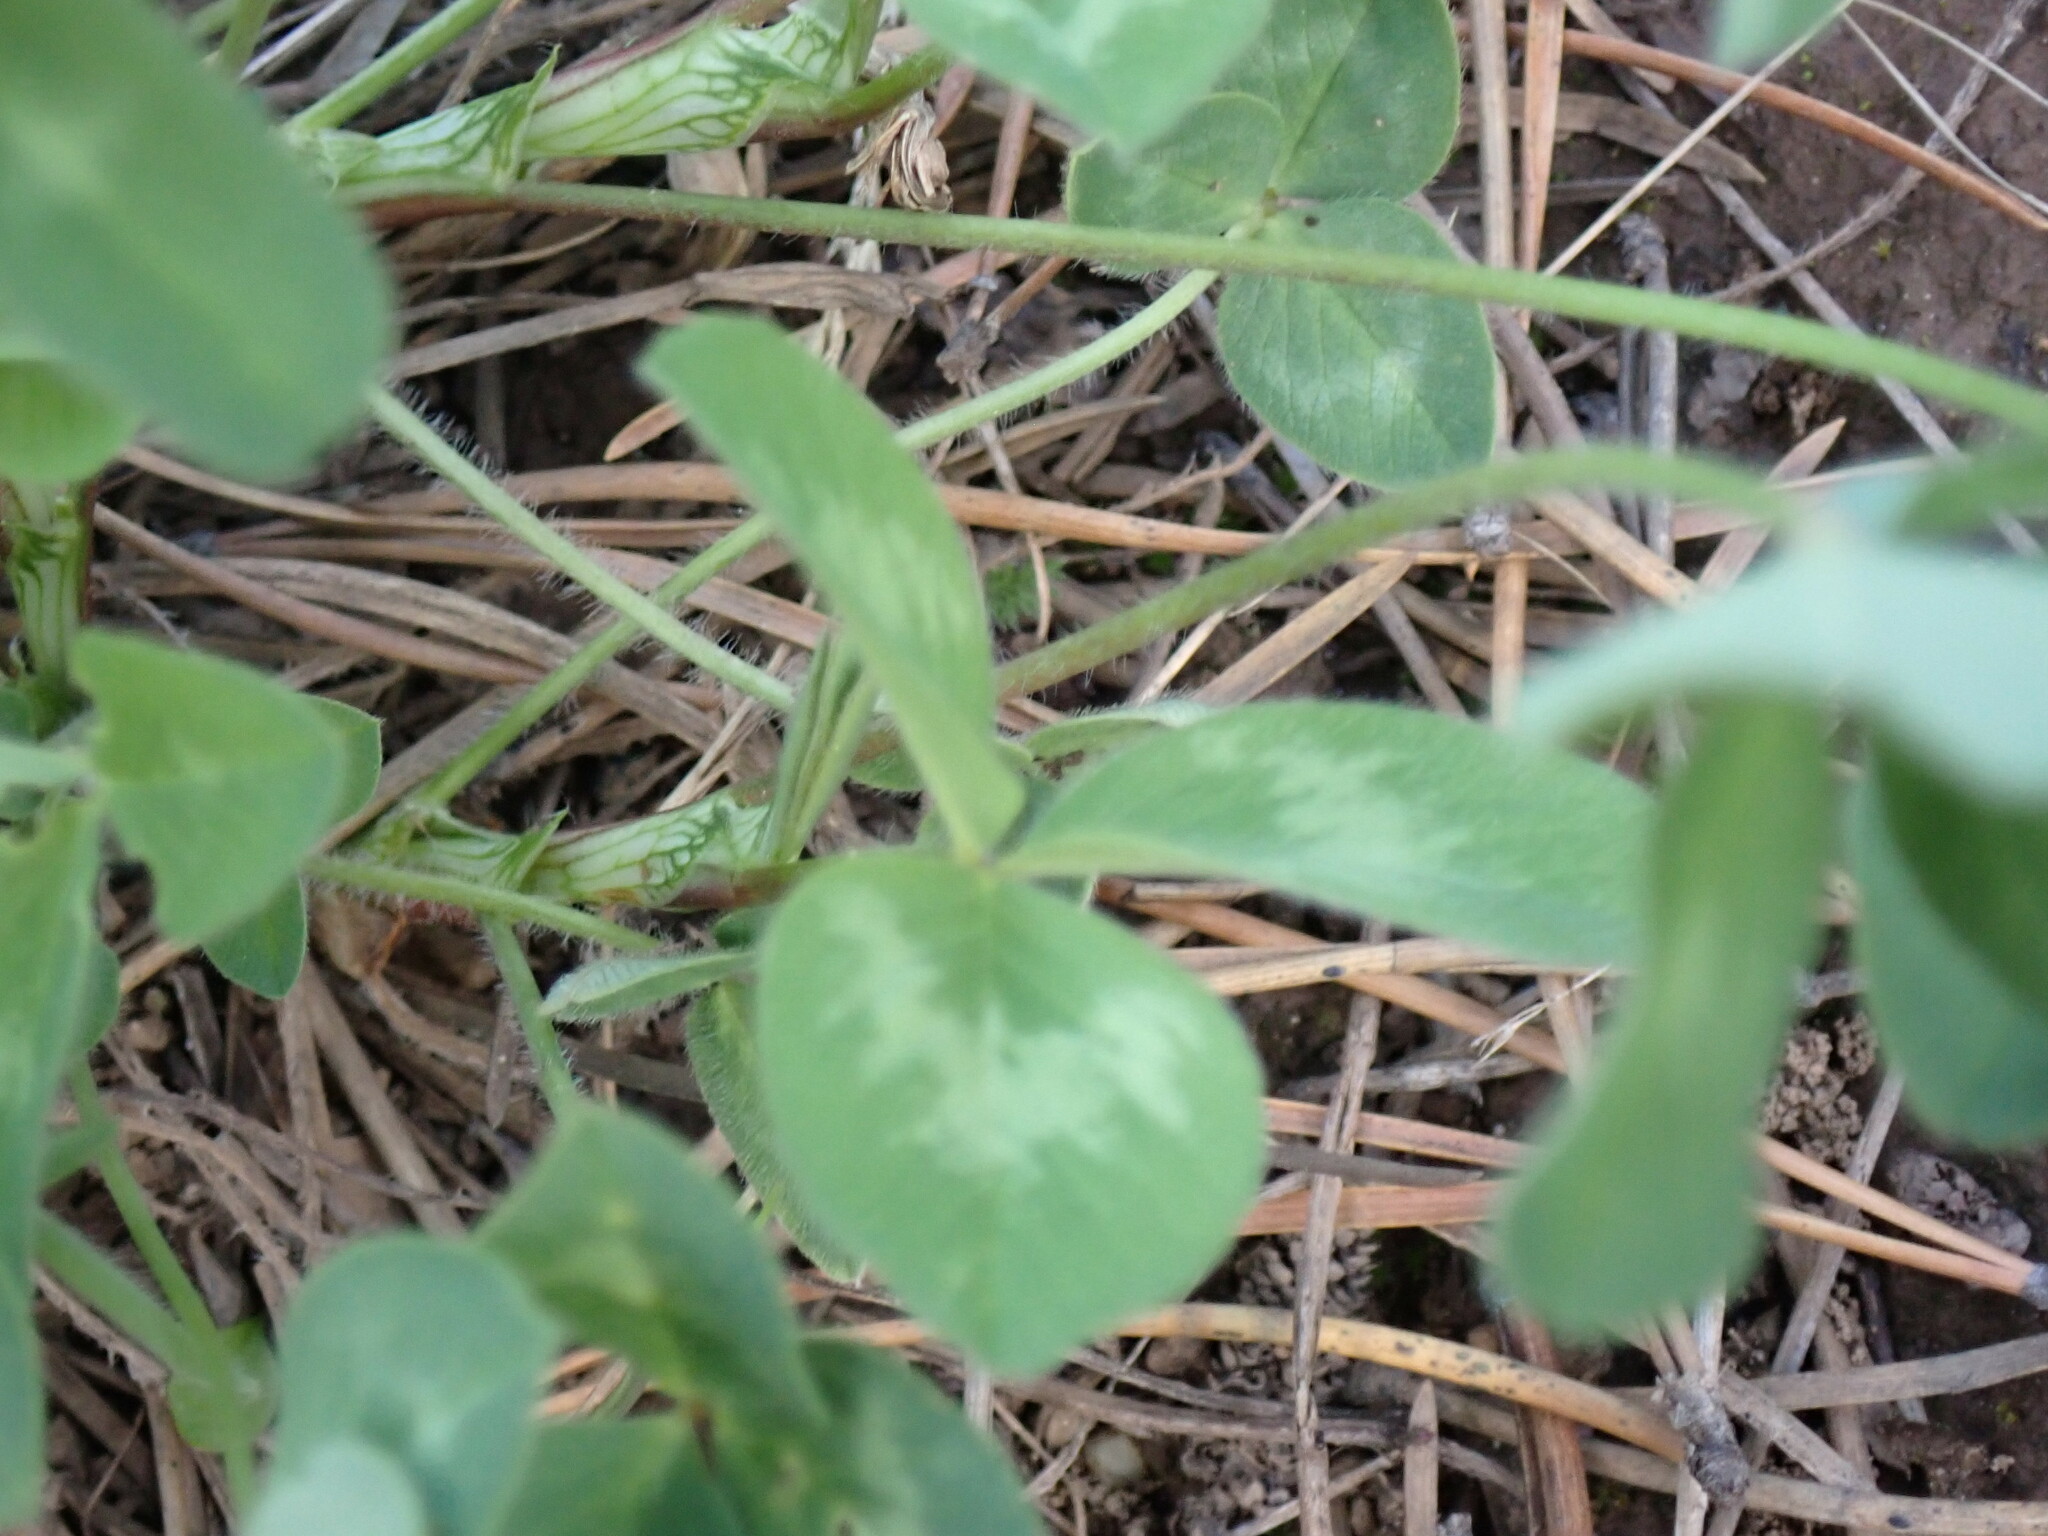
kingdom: Plantae
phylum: Tracheophyta
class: Magnoliopsida
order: Fabales
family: Fabaceae
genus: Trifolium
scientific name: Trifolium pratense
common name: Red clover
